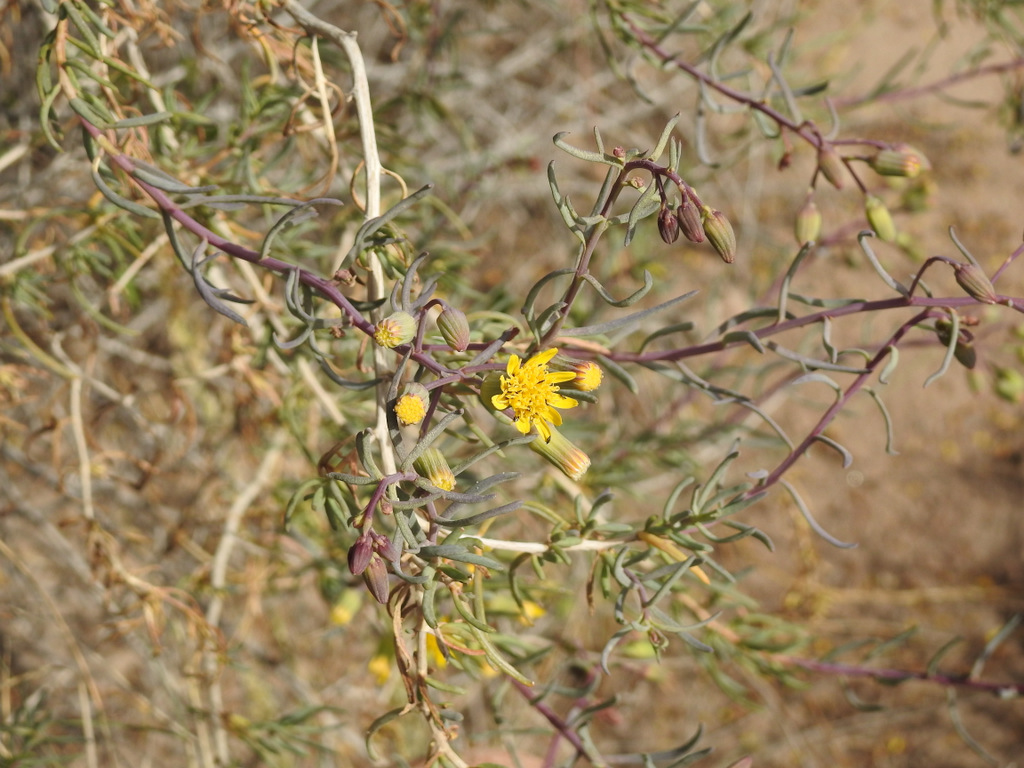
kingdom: Plantae
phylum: Tracheophyta
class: Magnoliopsida
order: Asterales
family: Asteraceae
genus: Senecio
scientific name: Senecio subulatus
